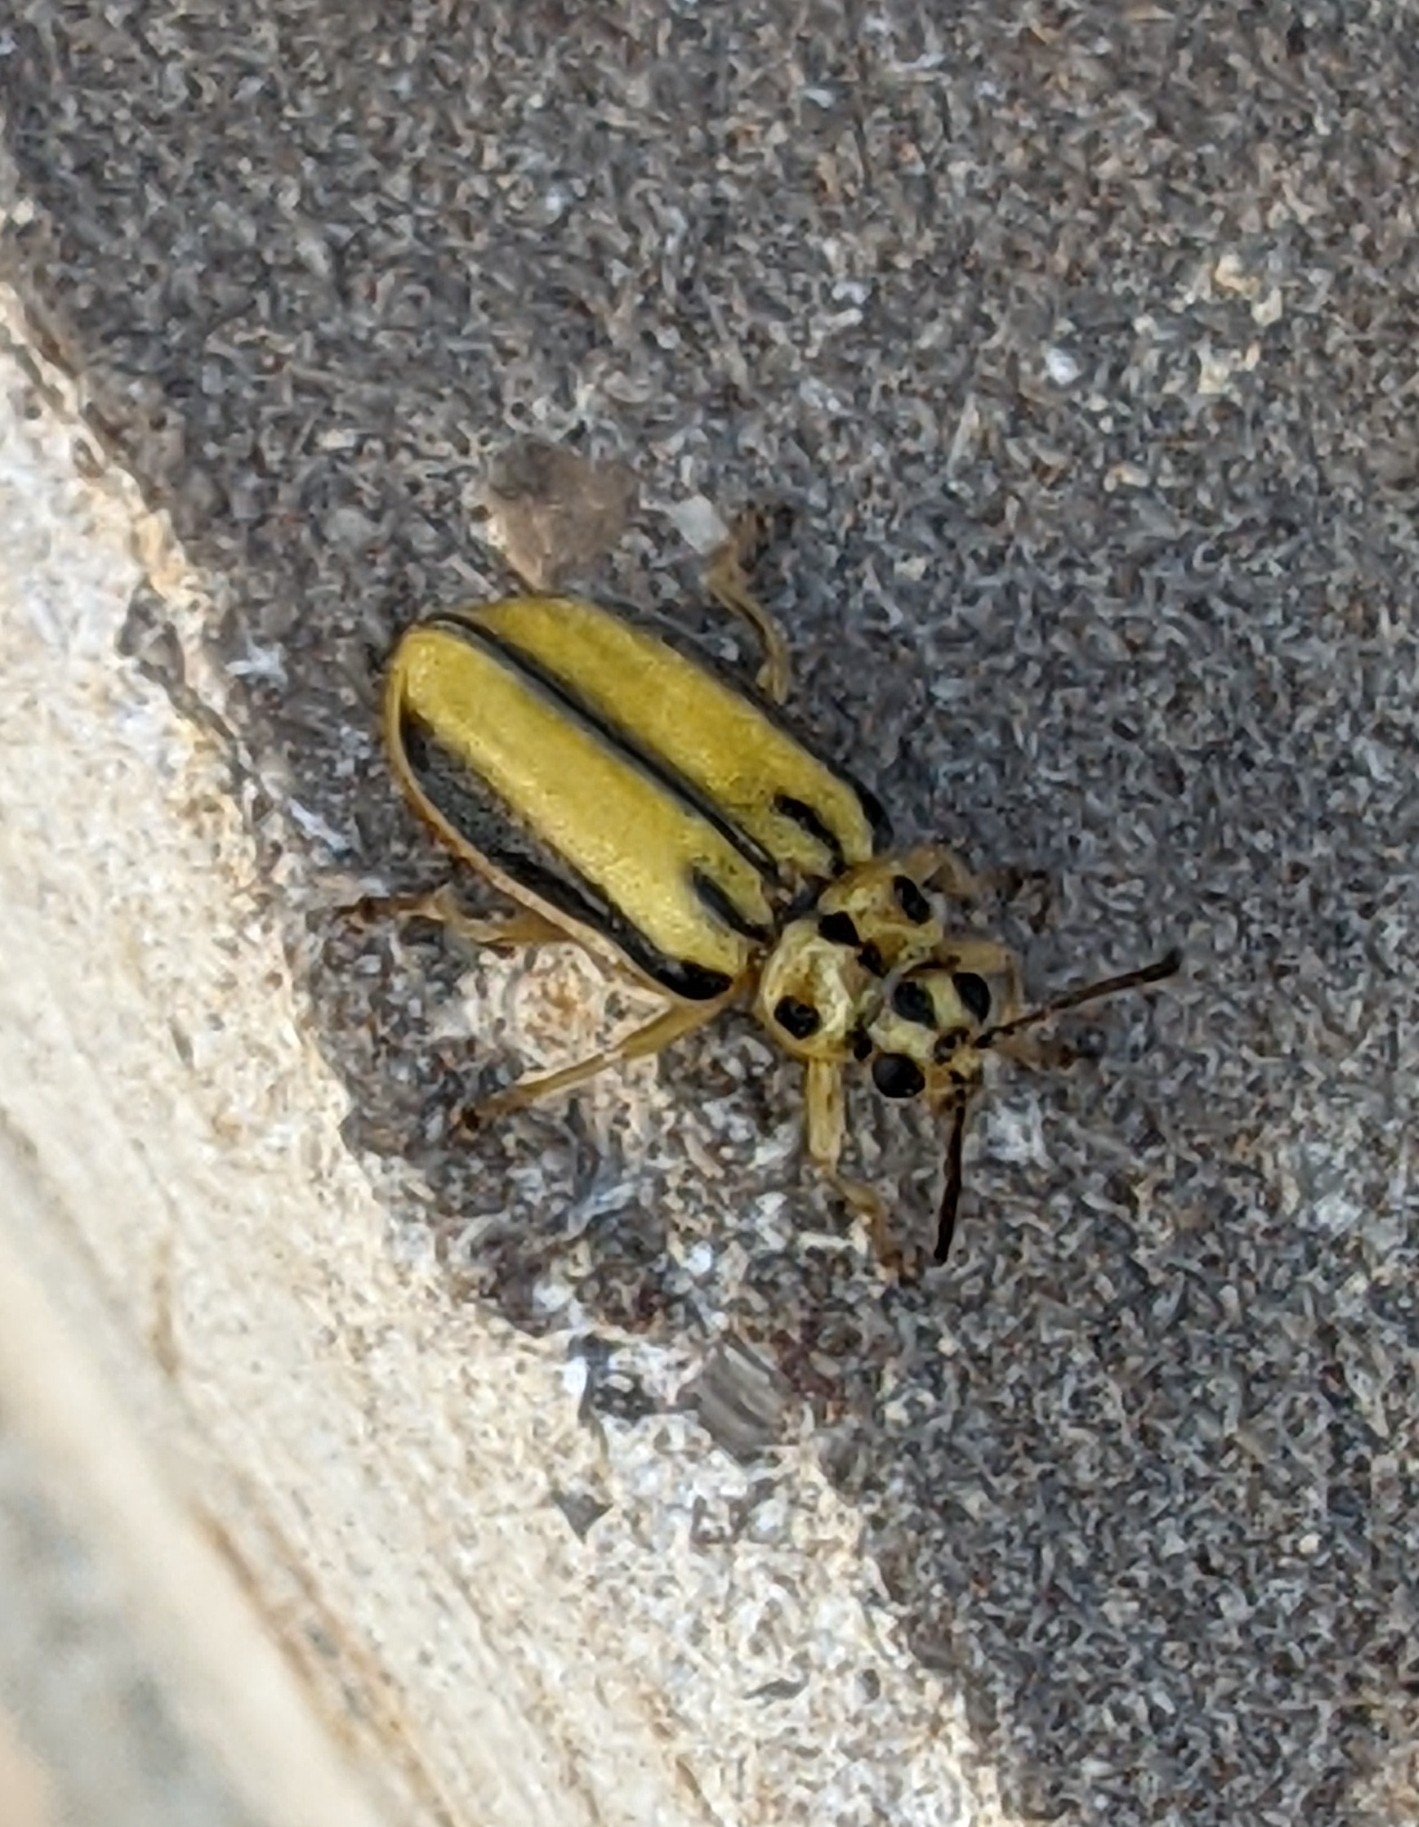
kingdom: Animalia
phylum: Arthropoda
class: Insecta
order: Coleoptera
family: Chrysomelidae
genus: Xanthogaleruca
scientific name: Xanthogaleruca luteola
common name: Elm leaf beetle
